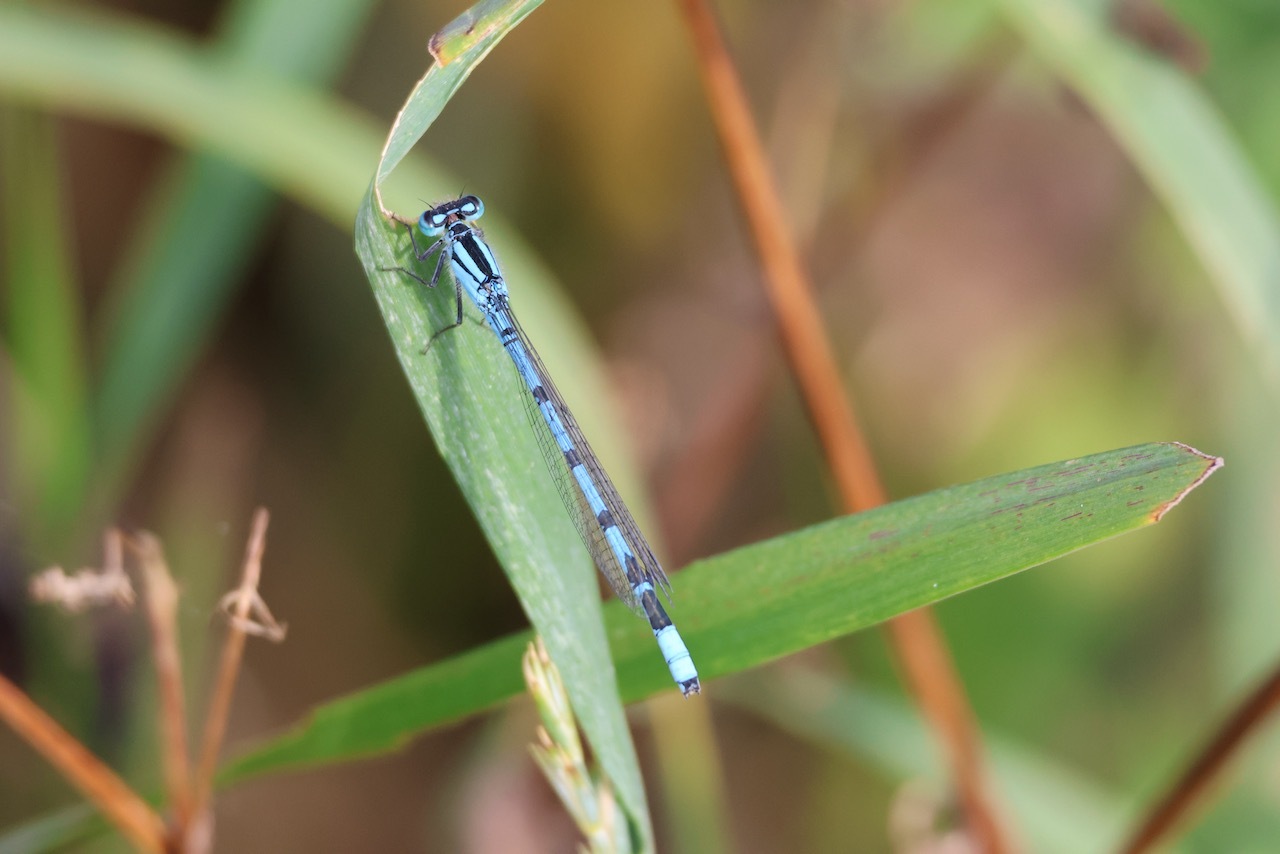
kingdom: Animalia
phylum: Arthropoda
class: Insecta
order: Odonata
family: Coenagrionidae
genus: Enallagma
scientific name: Enallagma cyathigerum
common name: Common blue damselfly
